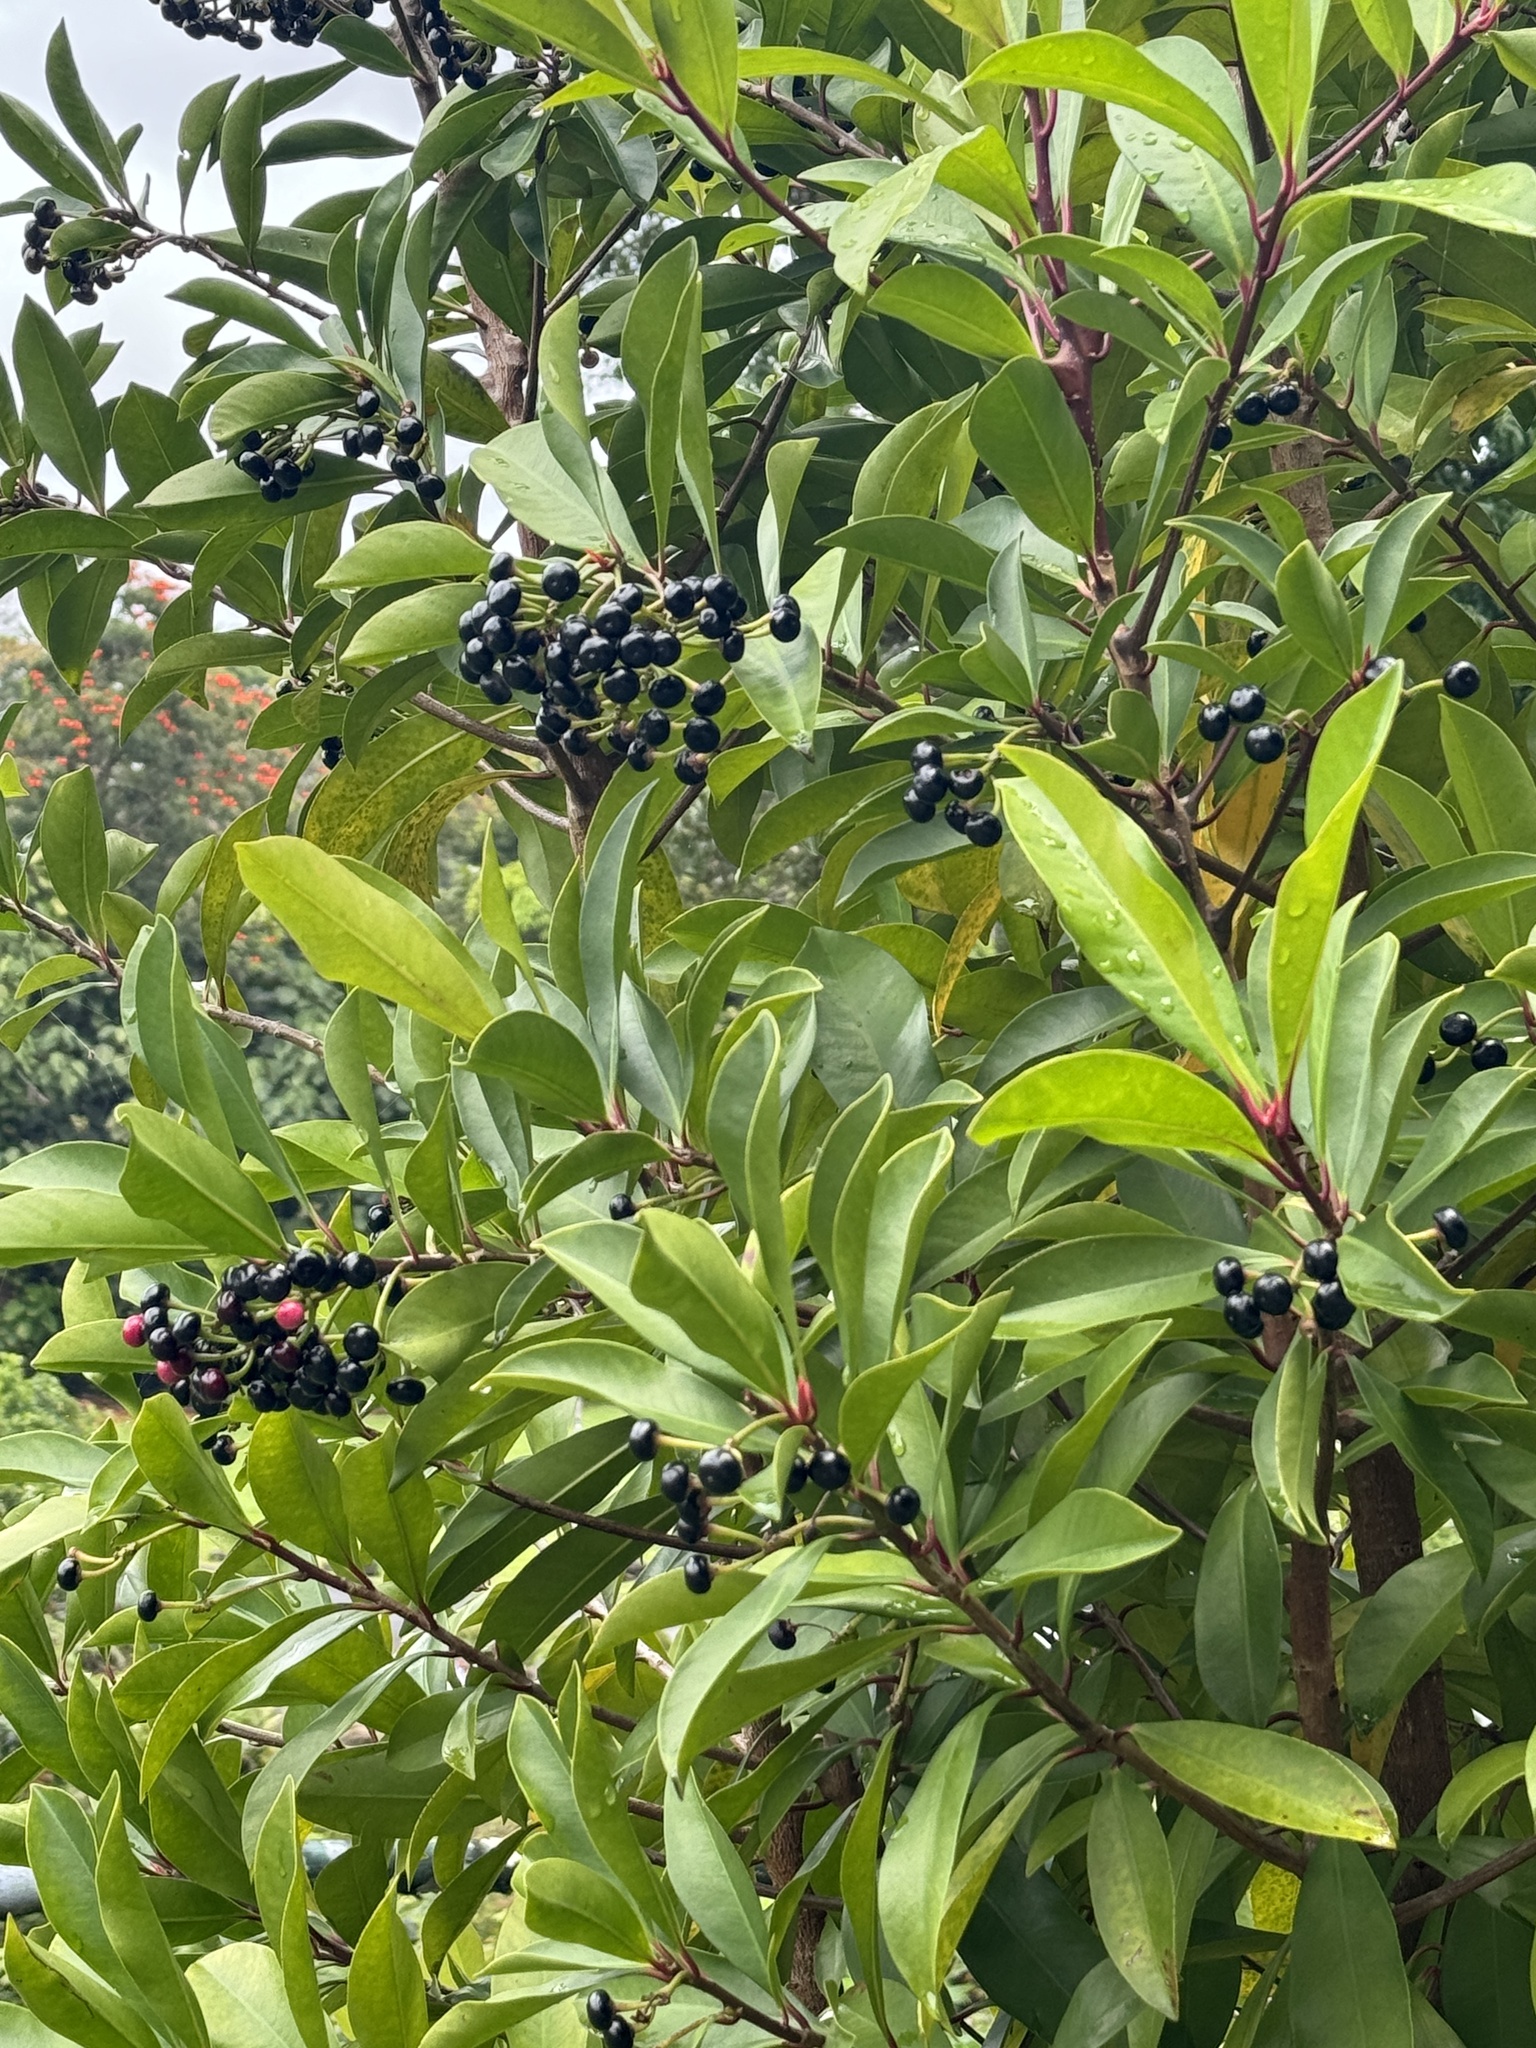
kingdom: Plantae
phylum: Tracheophyta
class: Magnoliopsida
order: Ericales
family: Primulaceae
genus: Ardisia
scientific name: Ardisia elliptica
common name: Shoebutton
